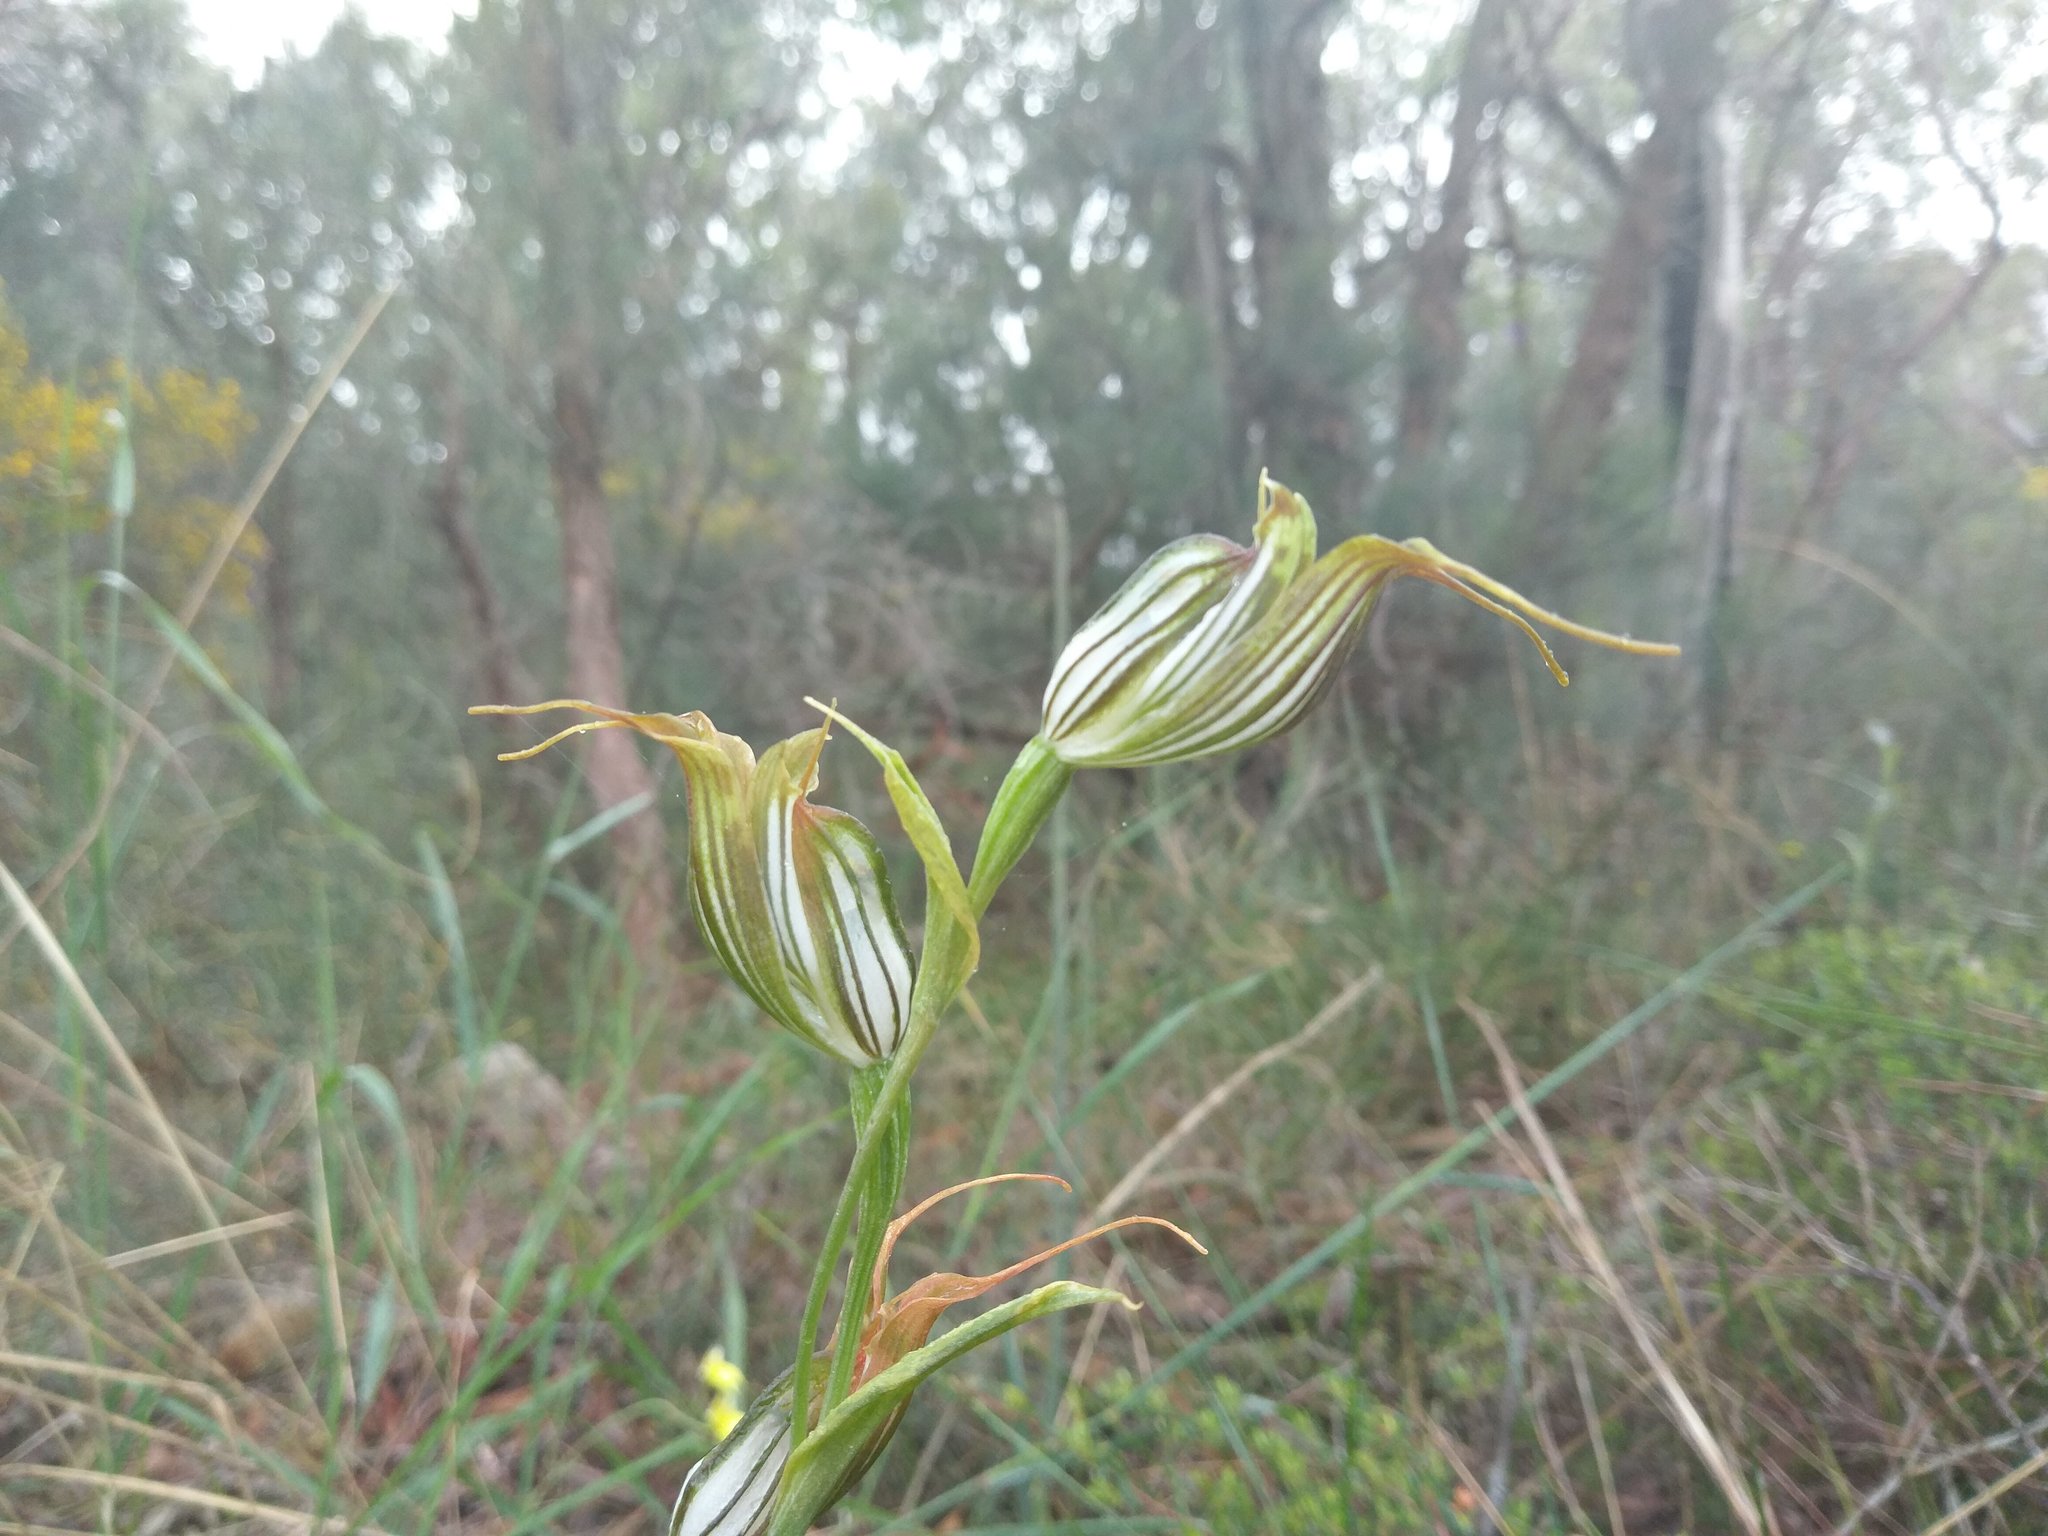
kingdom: Plantae
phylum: Tracheophyta
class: Liliopsida
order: Asparagales
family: Orchidaceae
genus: Pterostylis
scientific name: Pterostylis recurva
